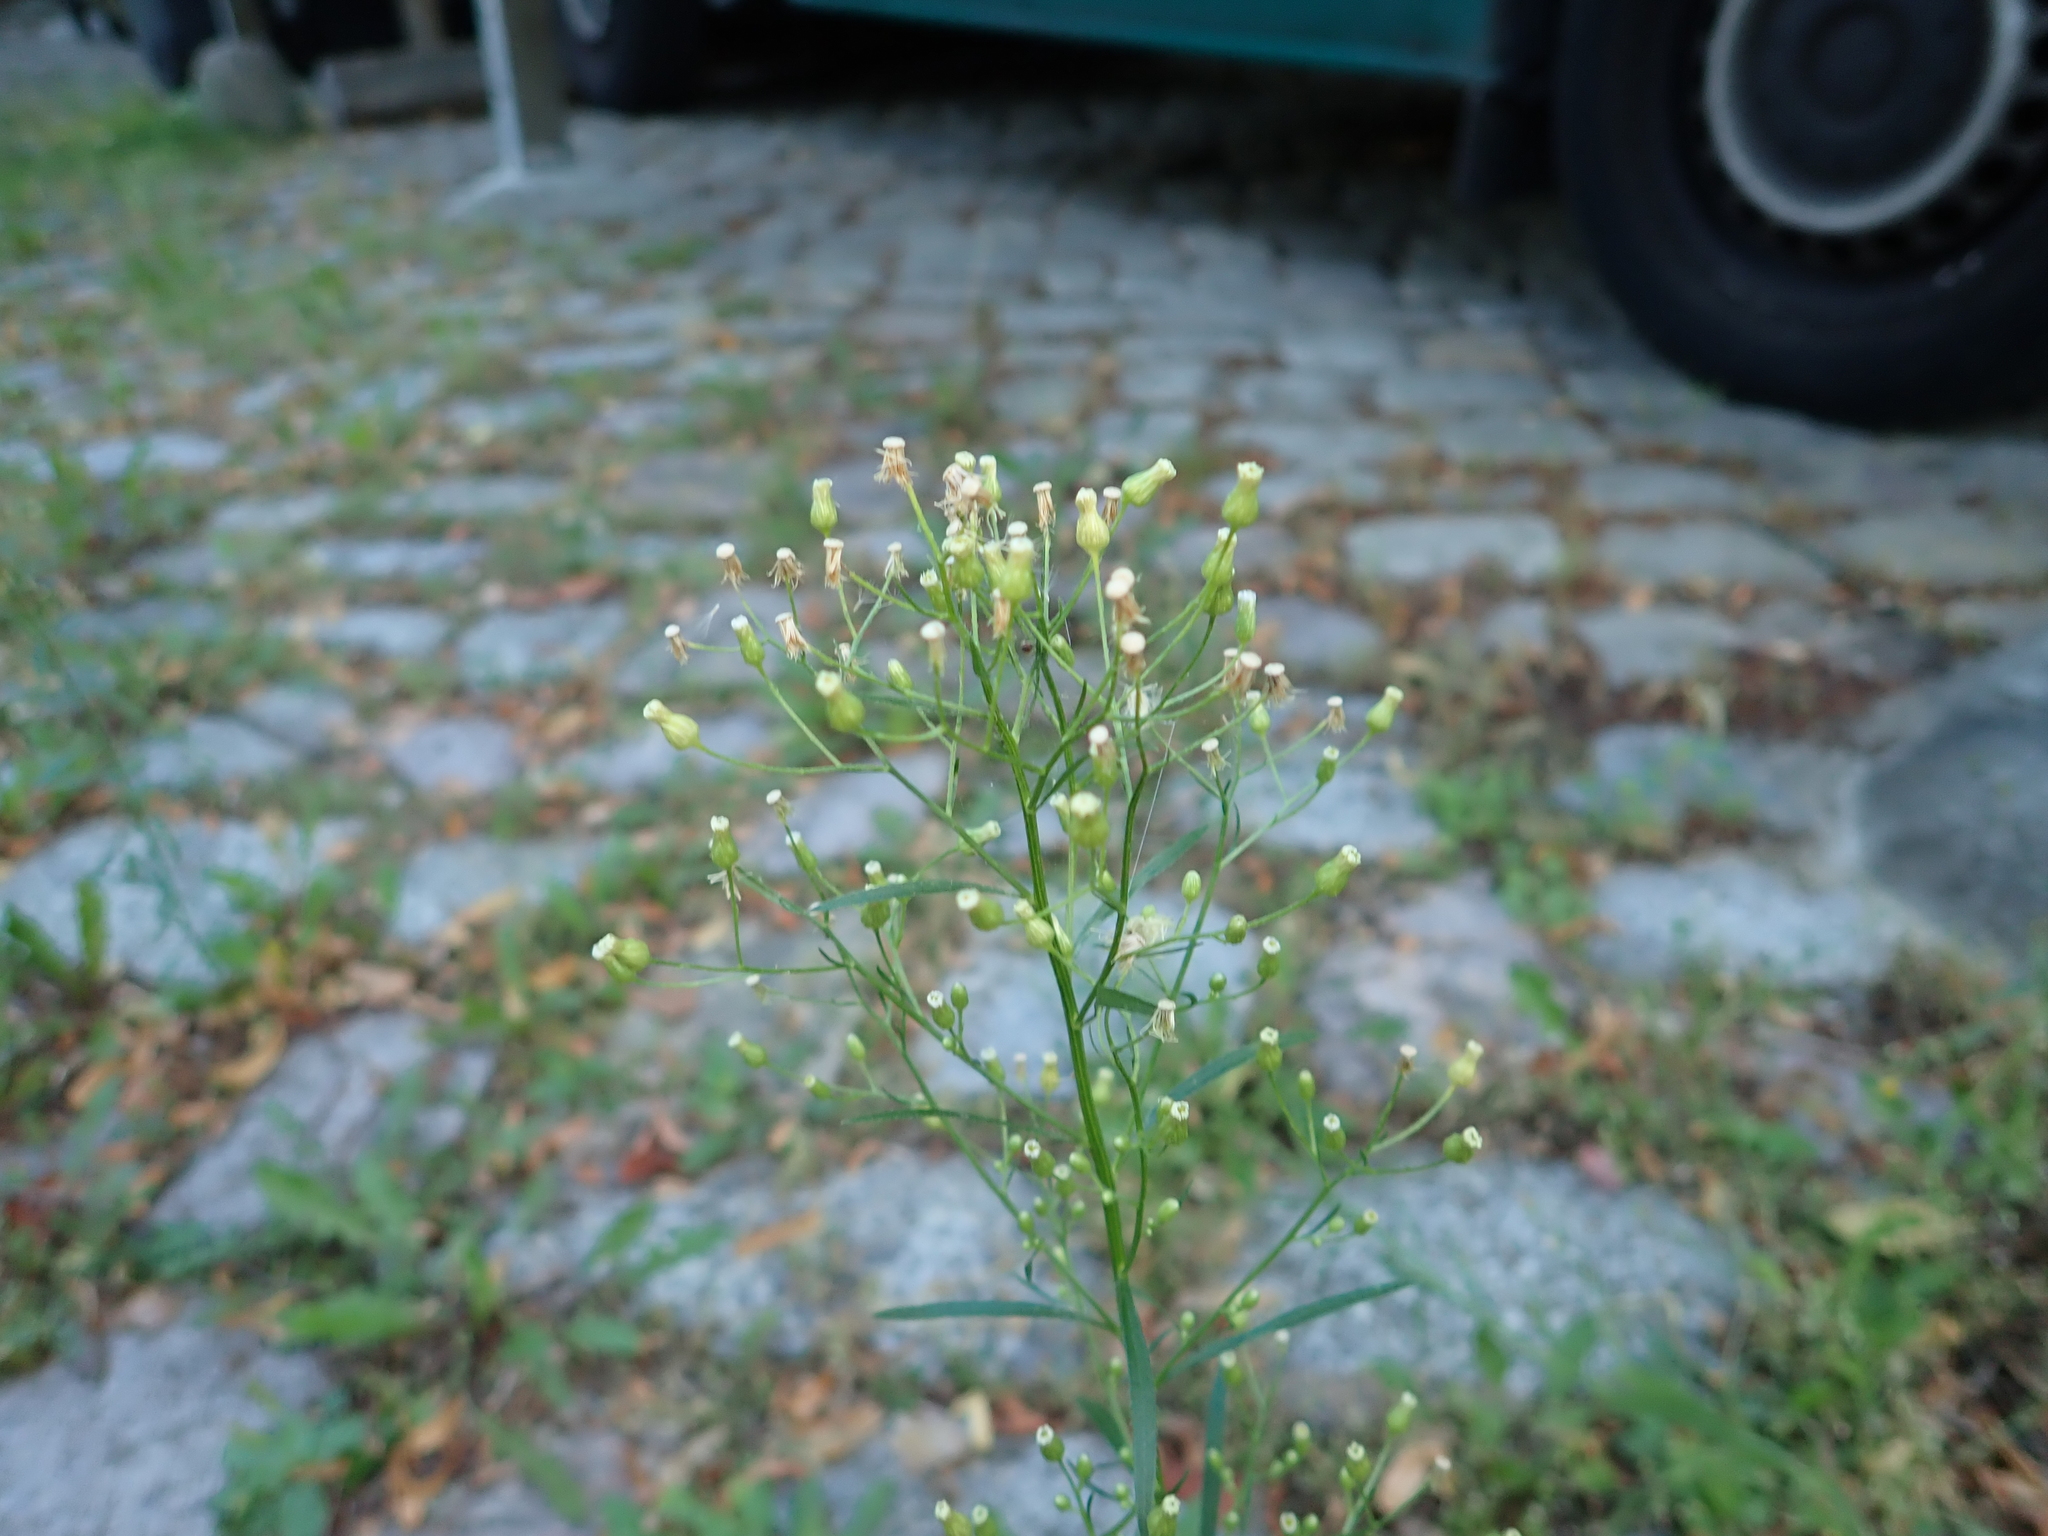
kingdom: Plantae
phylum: Tracheophyta
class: Magnoliopsida
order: Asterales
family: Asteraceae
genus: Erigeron
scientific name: Erigeron canadensis
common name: Canadian fleabane
